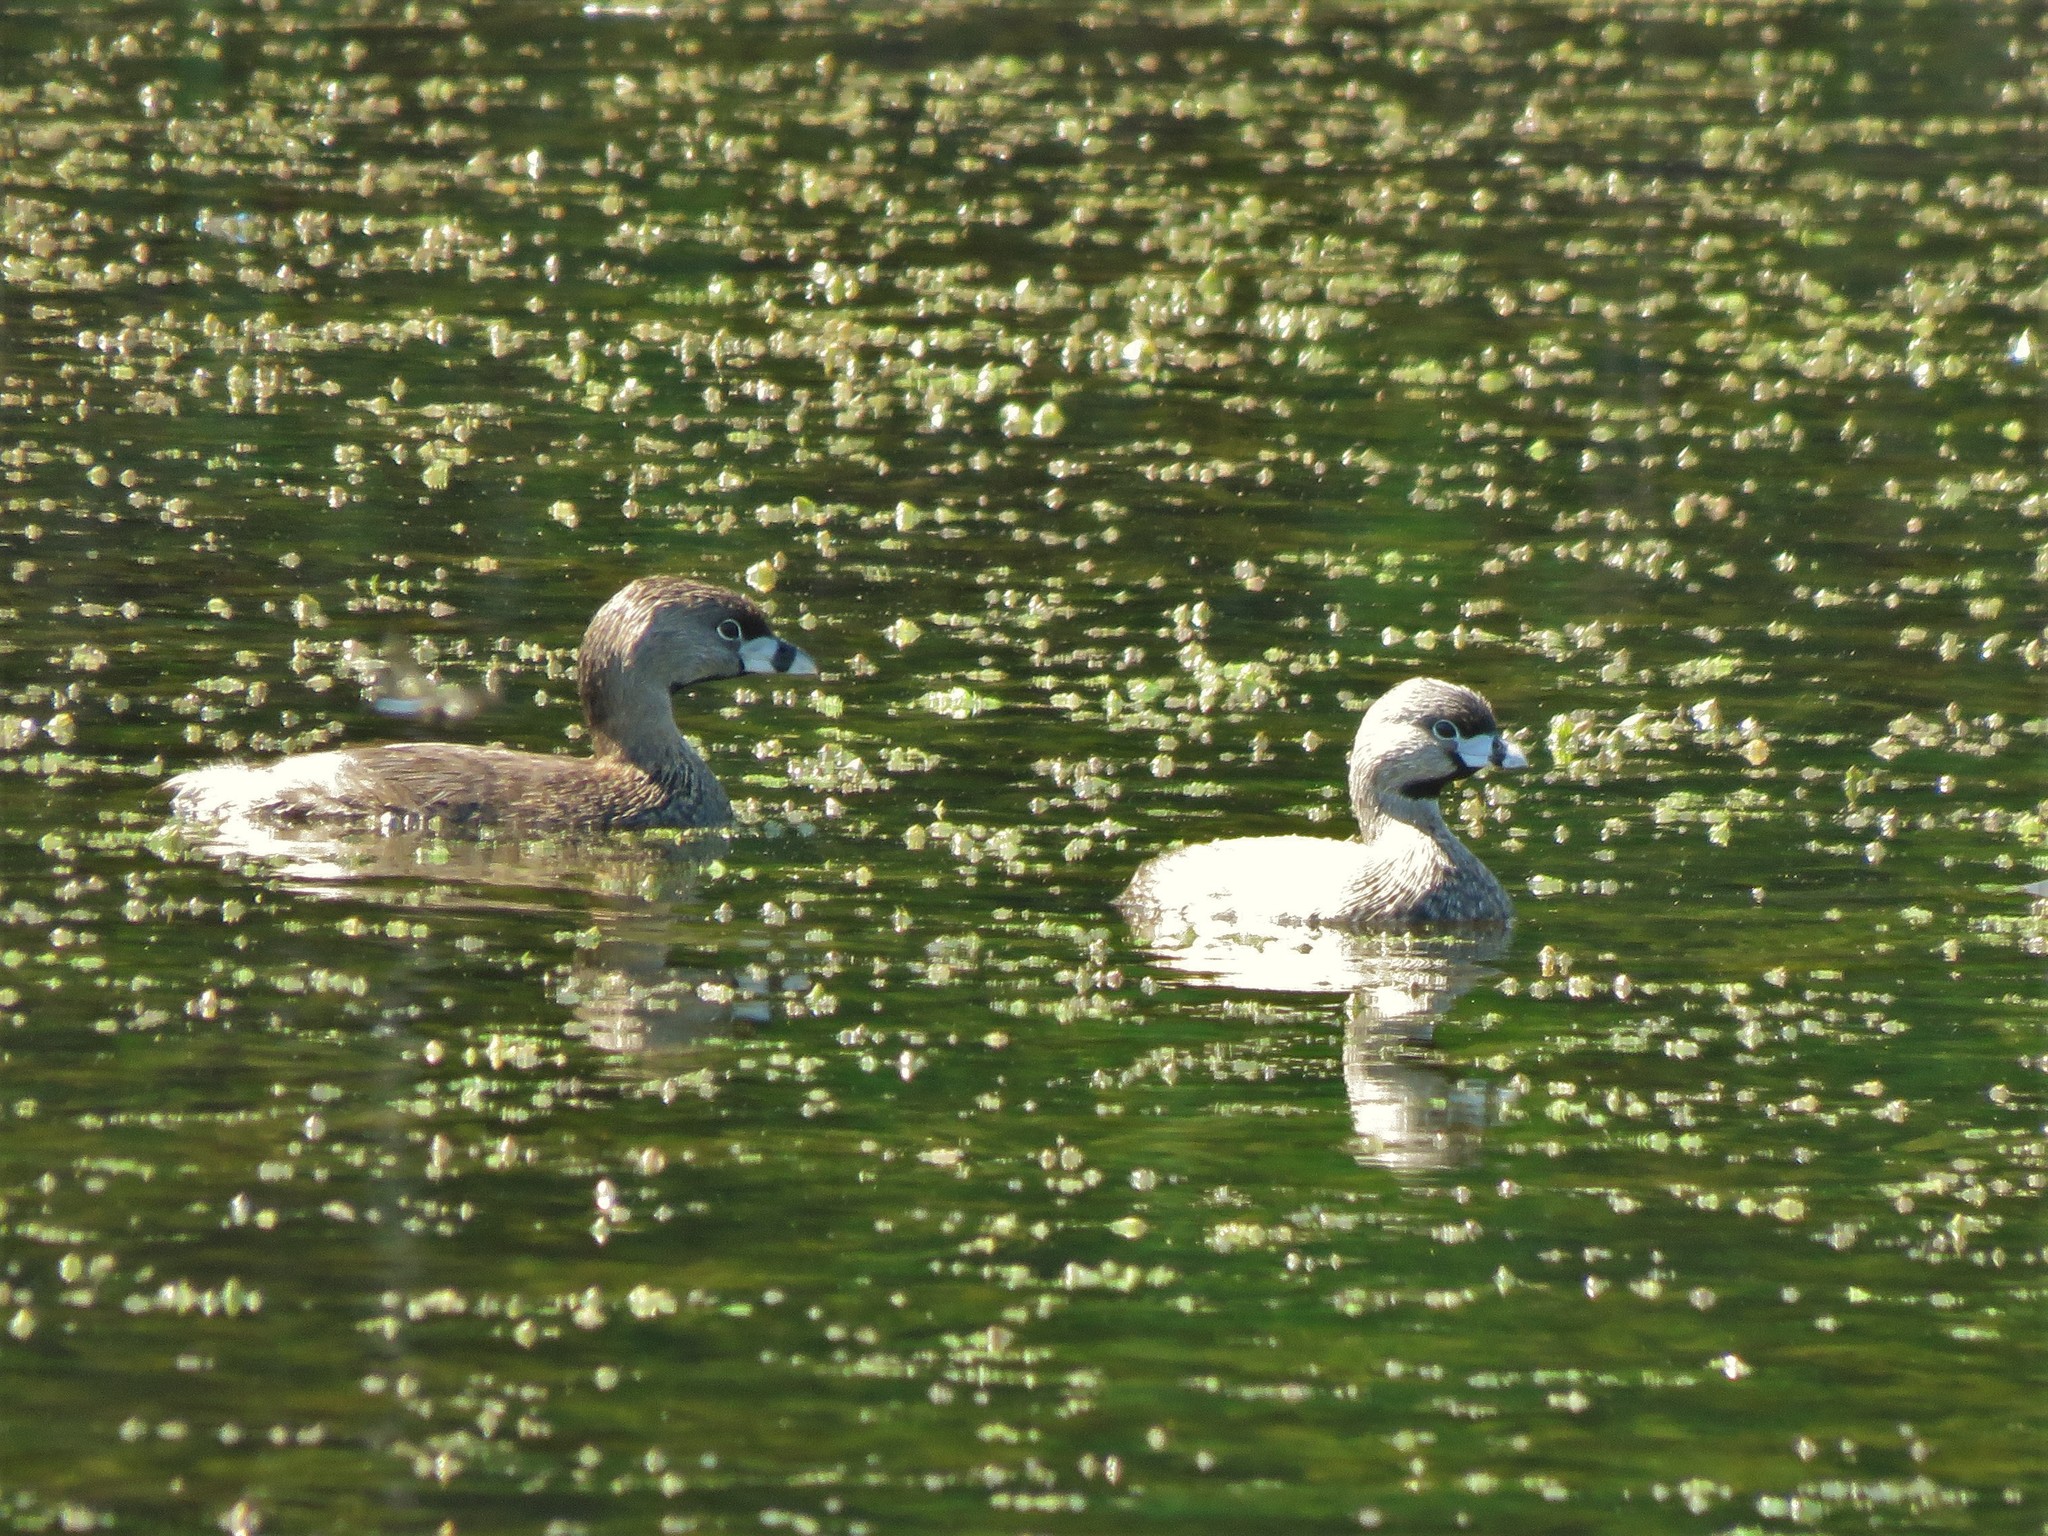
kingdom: Animalia
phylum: Chordata
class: Aves
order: Podicipediformes
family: Podicipedidae
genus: Podilymbus
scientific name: Podilymbus podiceps
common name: Pied-billed grebe
